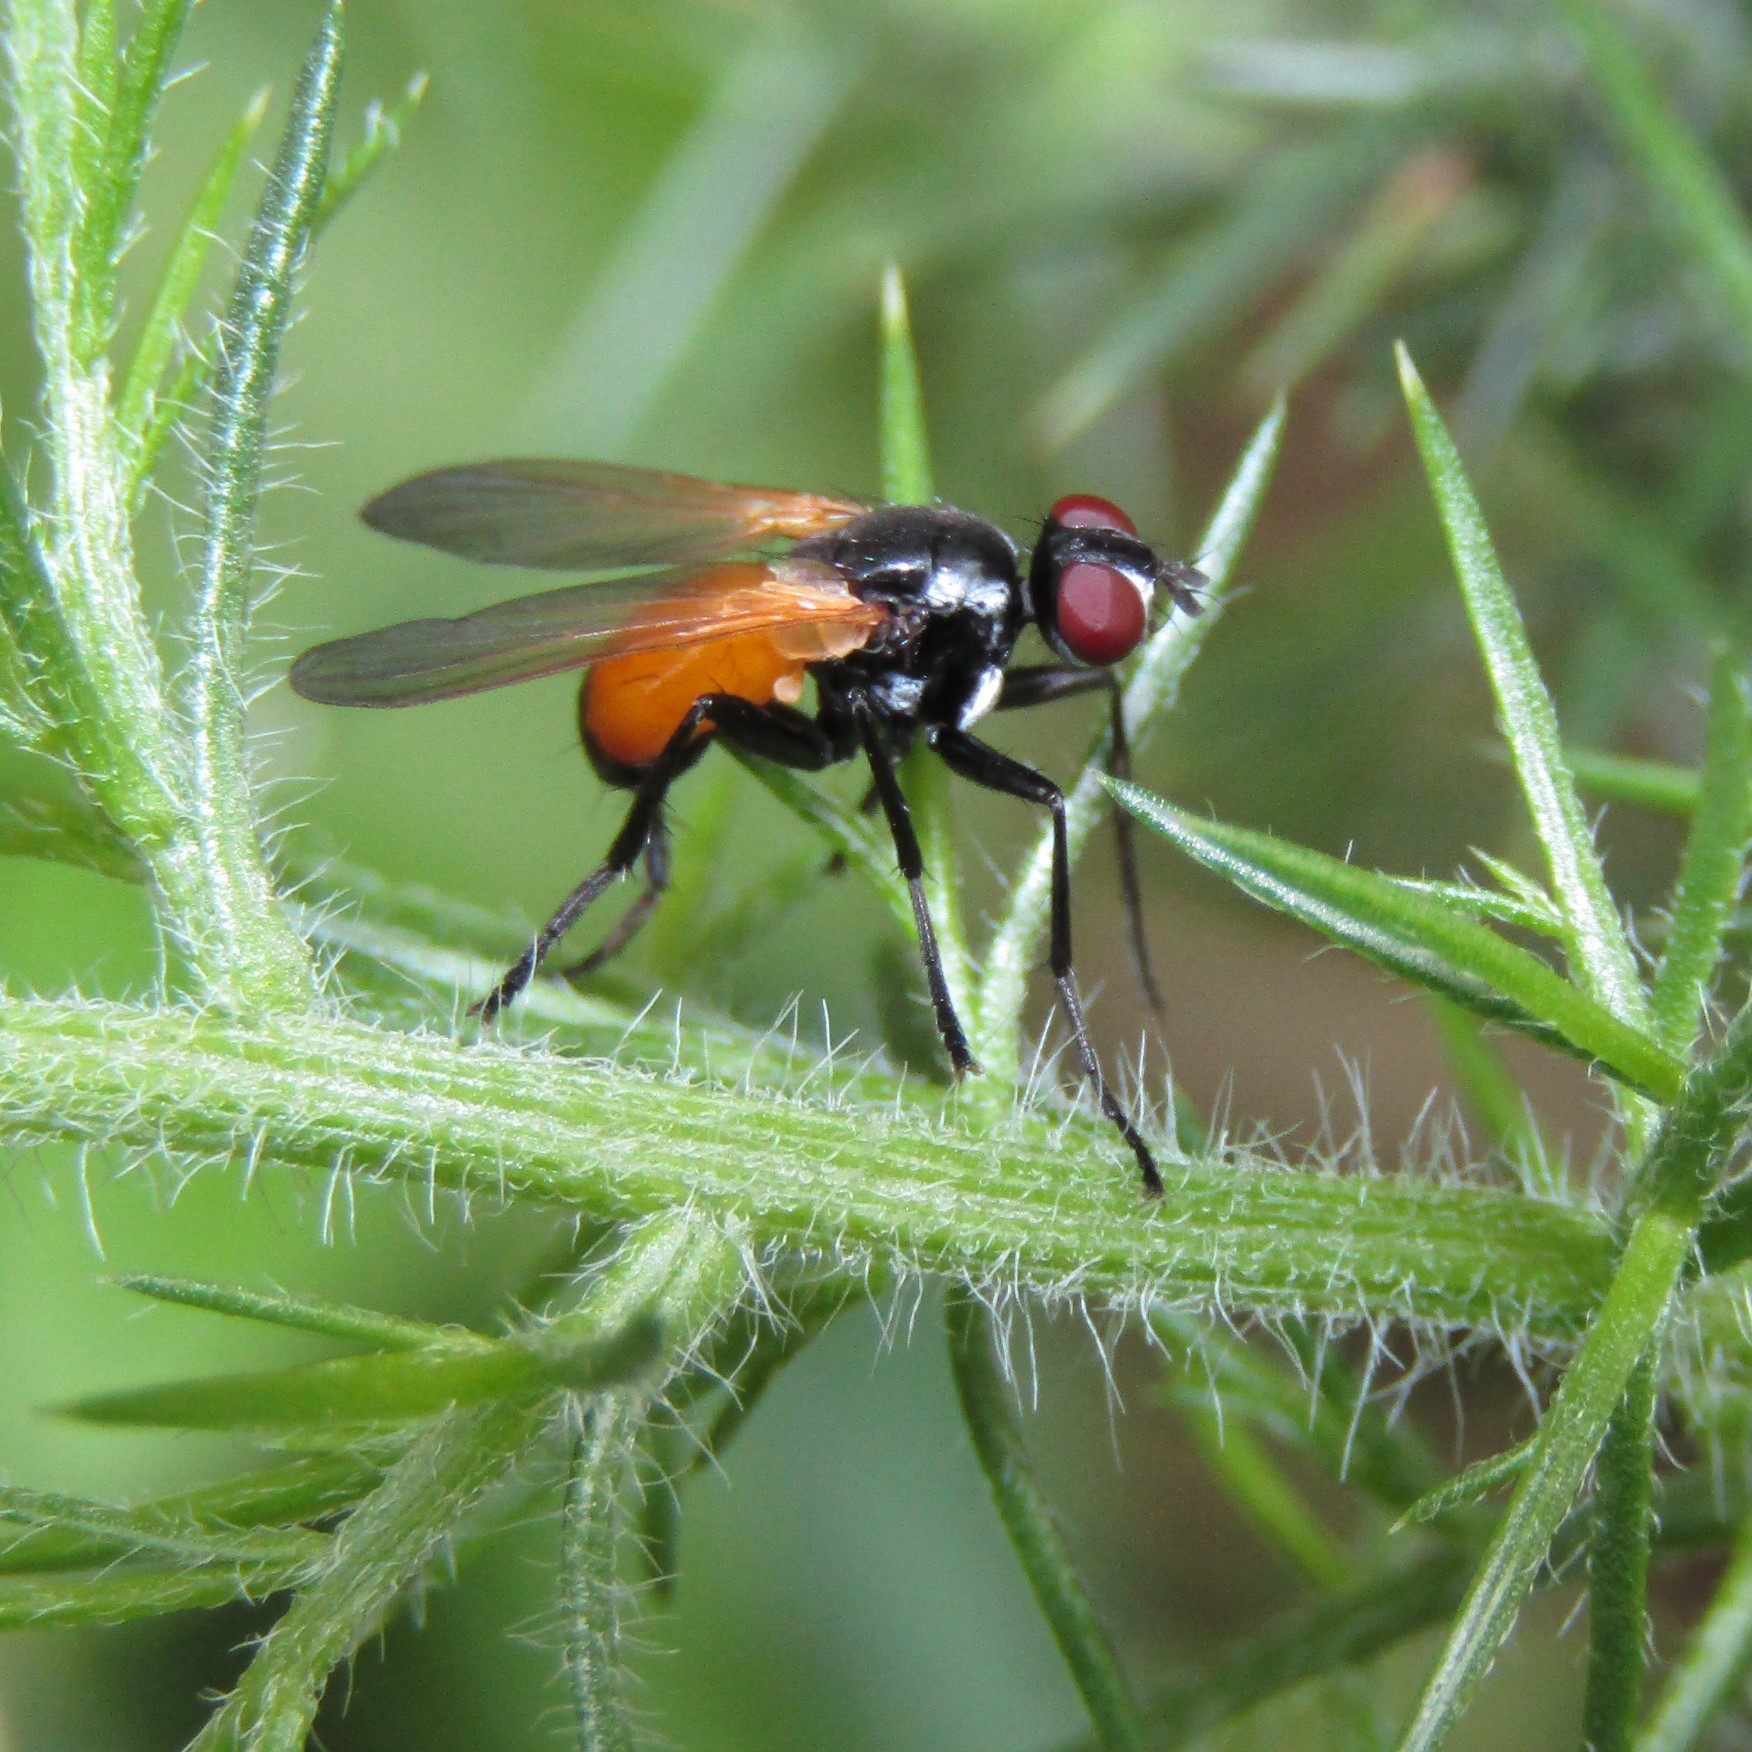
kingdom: Animalia
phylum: Arthropoda
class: Insecta
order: Diptera
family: Tachinidae
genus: Huttonobesseria
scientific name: Huttonobesseria verecunda
